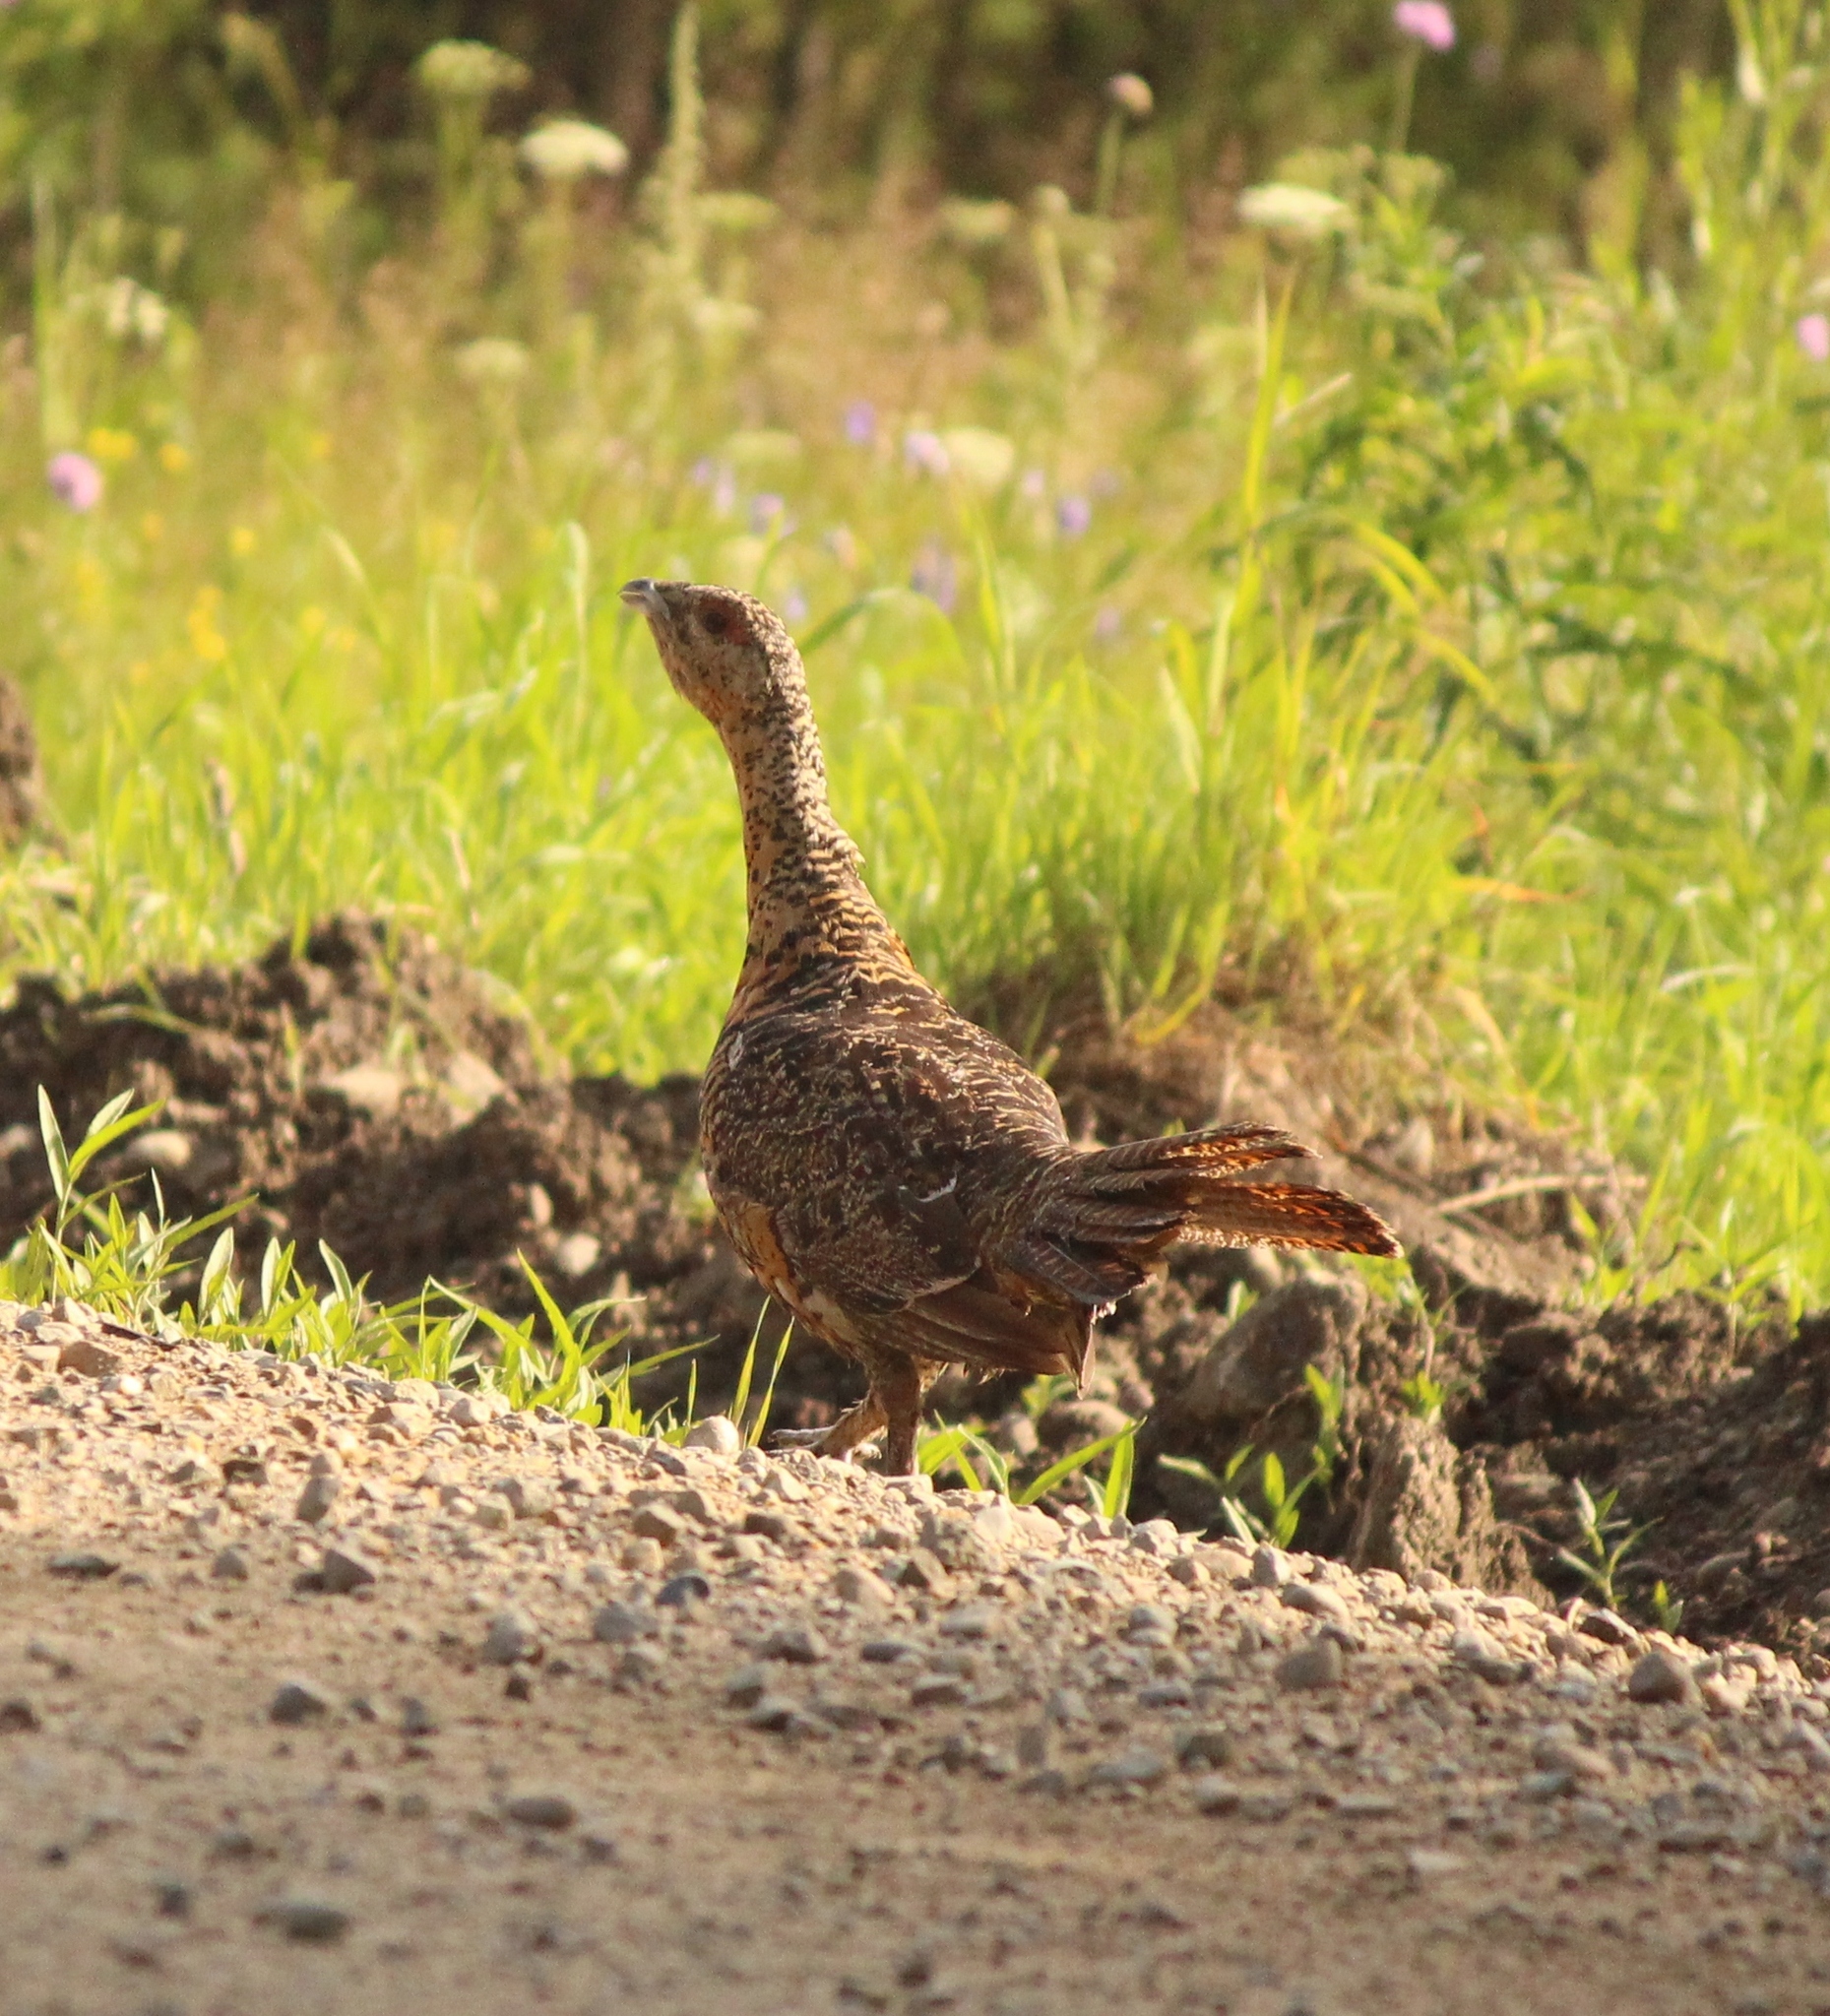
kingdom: Animalia
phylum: Chordata
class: Aves
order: Galliformes
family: Phasianidae
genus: Tetrao
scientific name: Tetrao urogallus
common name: Western capercaillie
